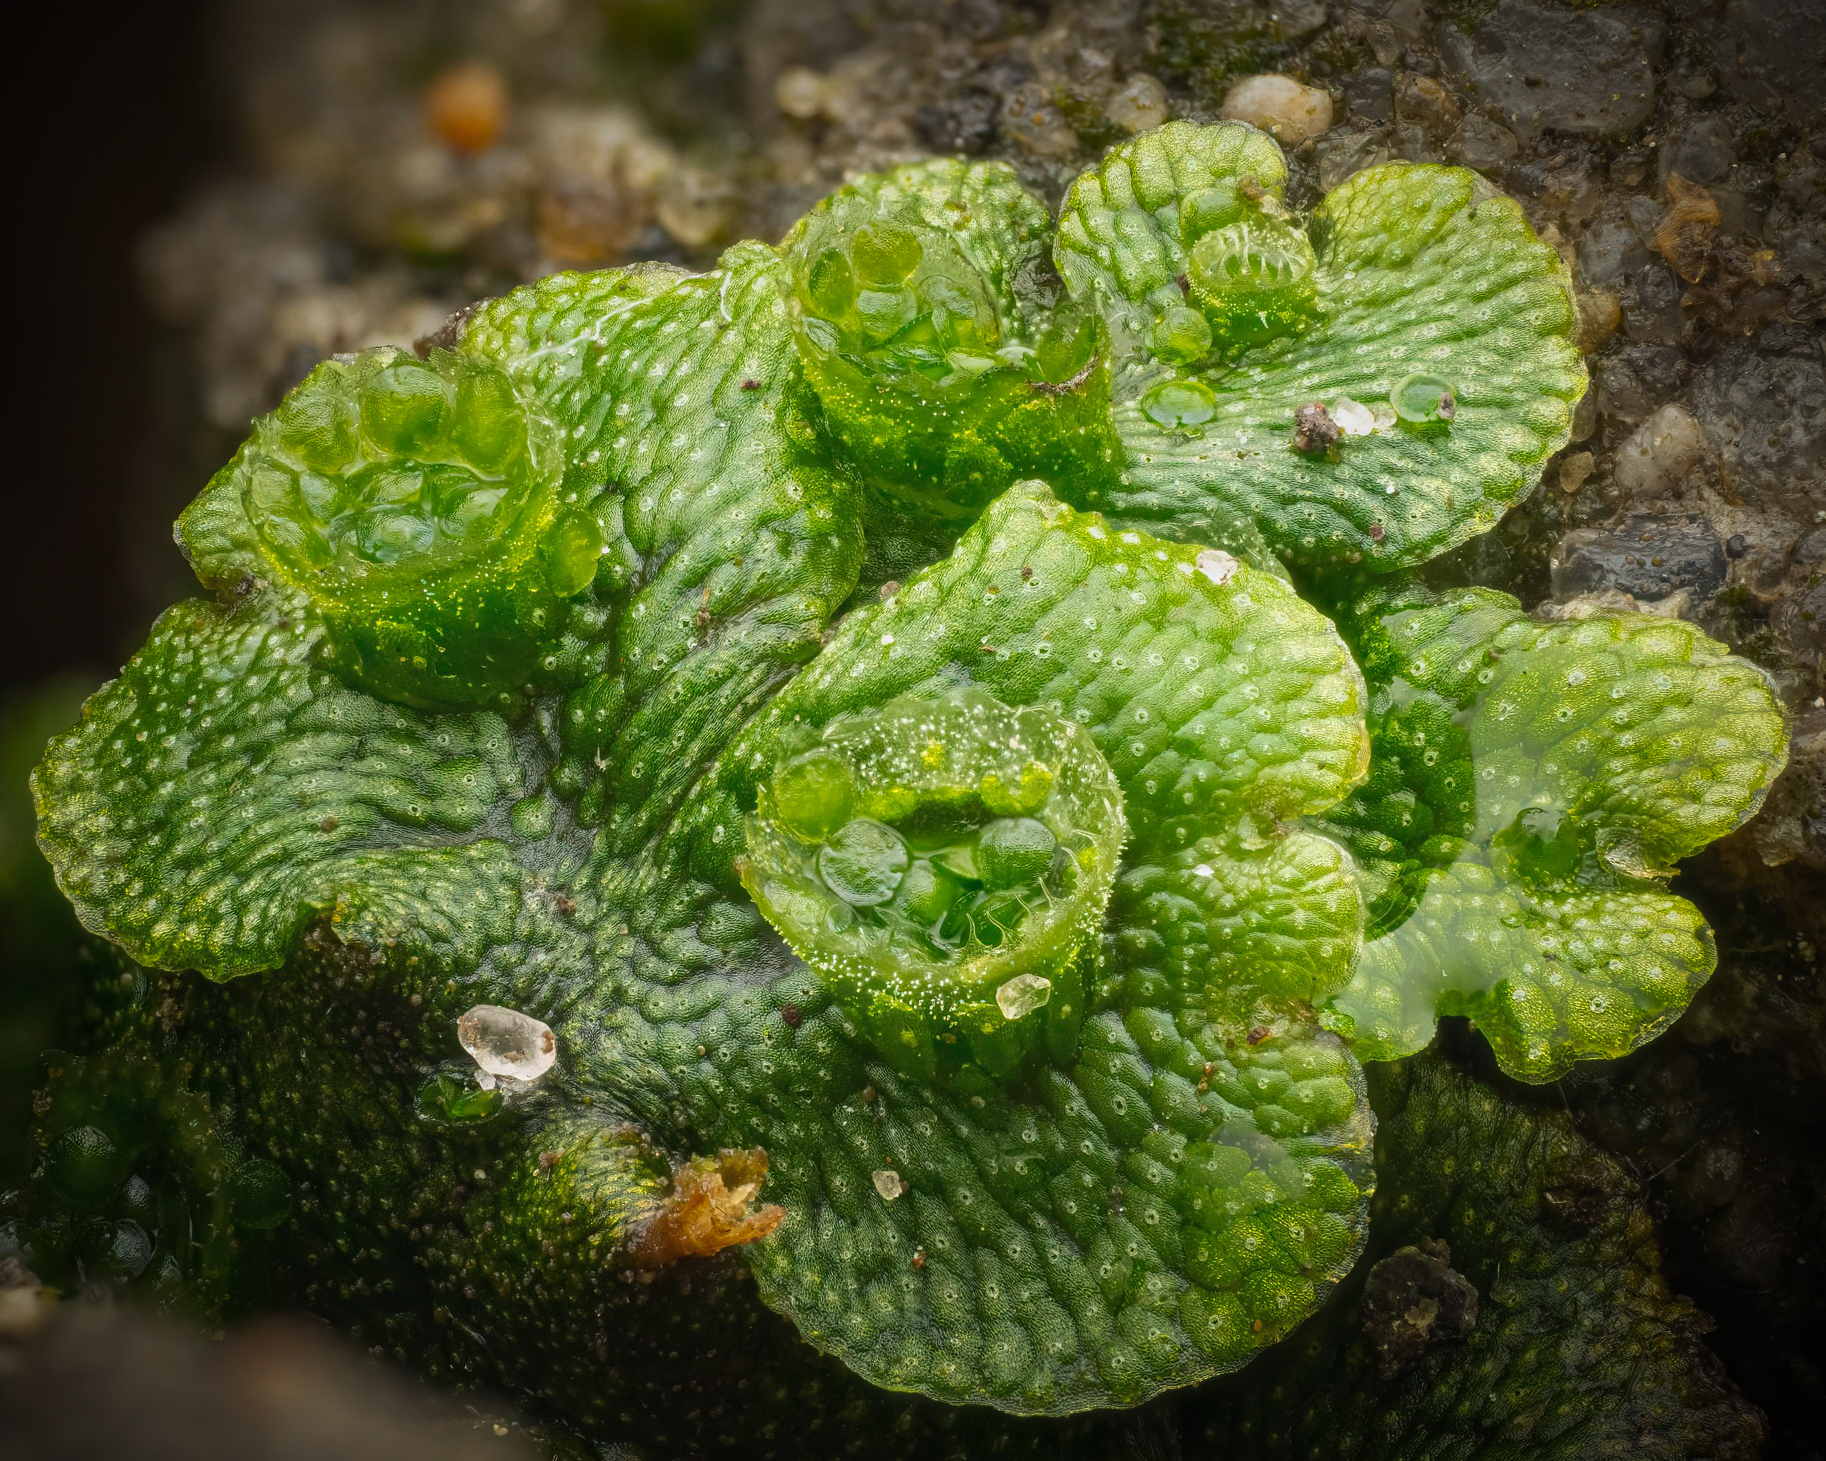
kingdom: Plantae
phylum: Marchantiophyta
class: Marchantiopsida
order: Marchantiales
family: Marchantiaceae
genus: Marchantia
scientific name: Marchantia polymorpha
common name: Common liverwort
